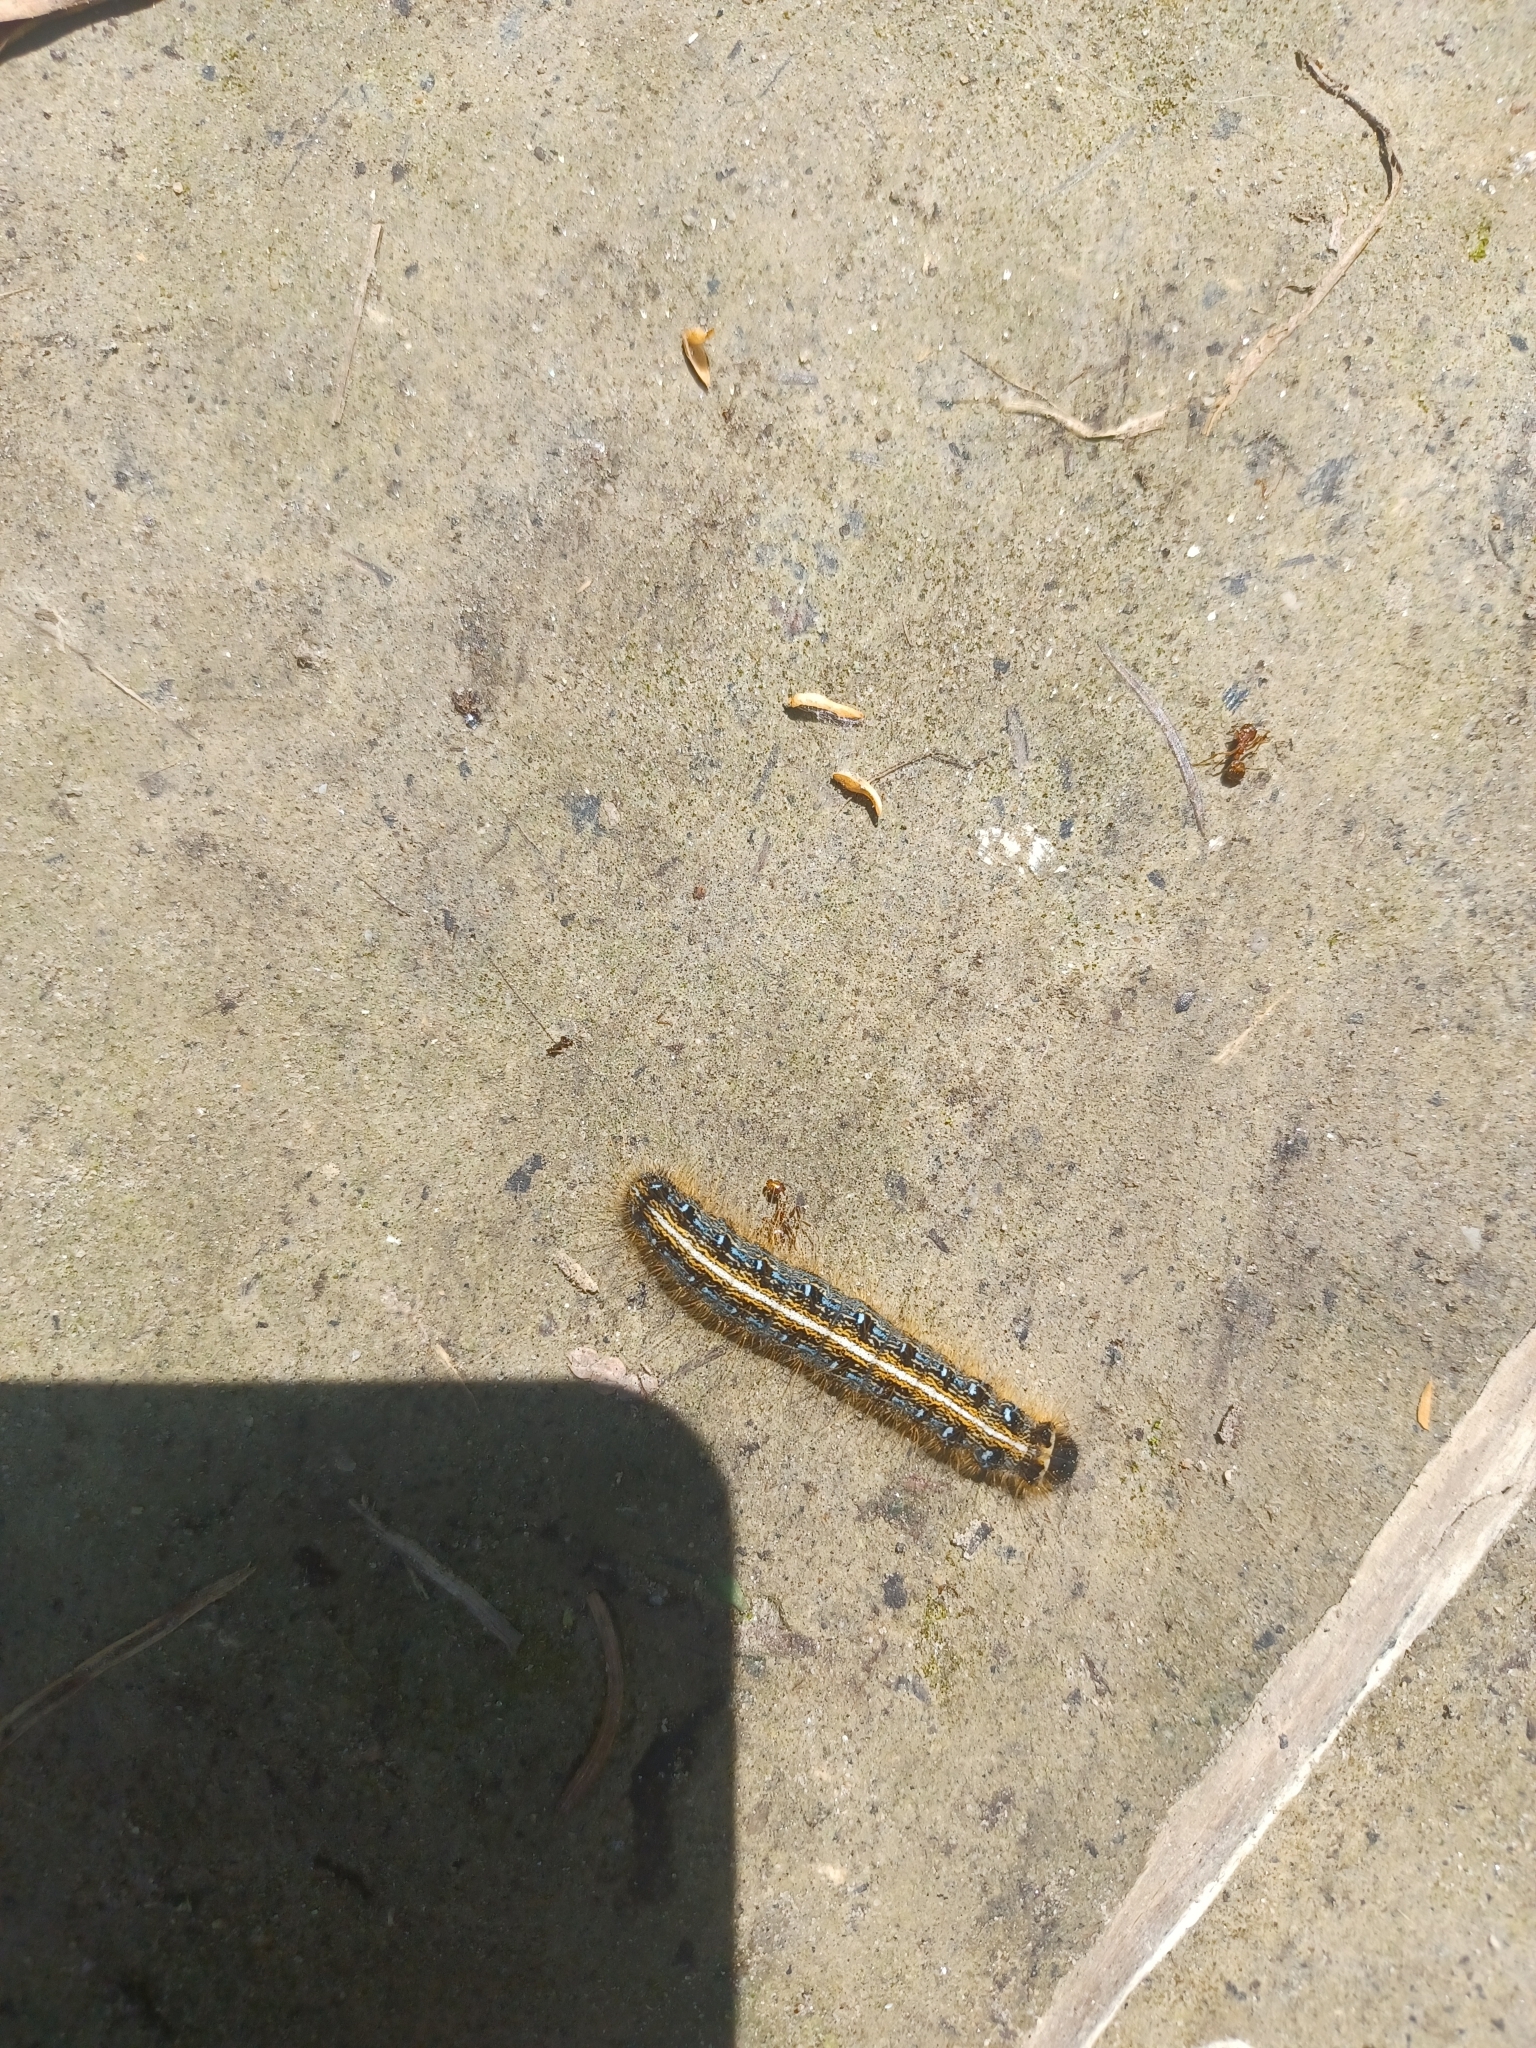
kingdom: Animalia
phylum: Arthropoda
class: Insecta
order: Lepidoptera
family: Lasiocampidae
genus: Malacosoma
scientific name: Malacosoma americana
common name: Eastern tent caterpillar moth
